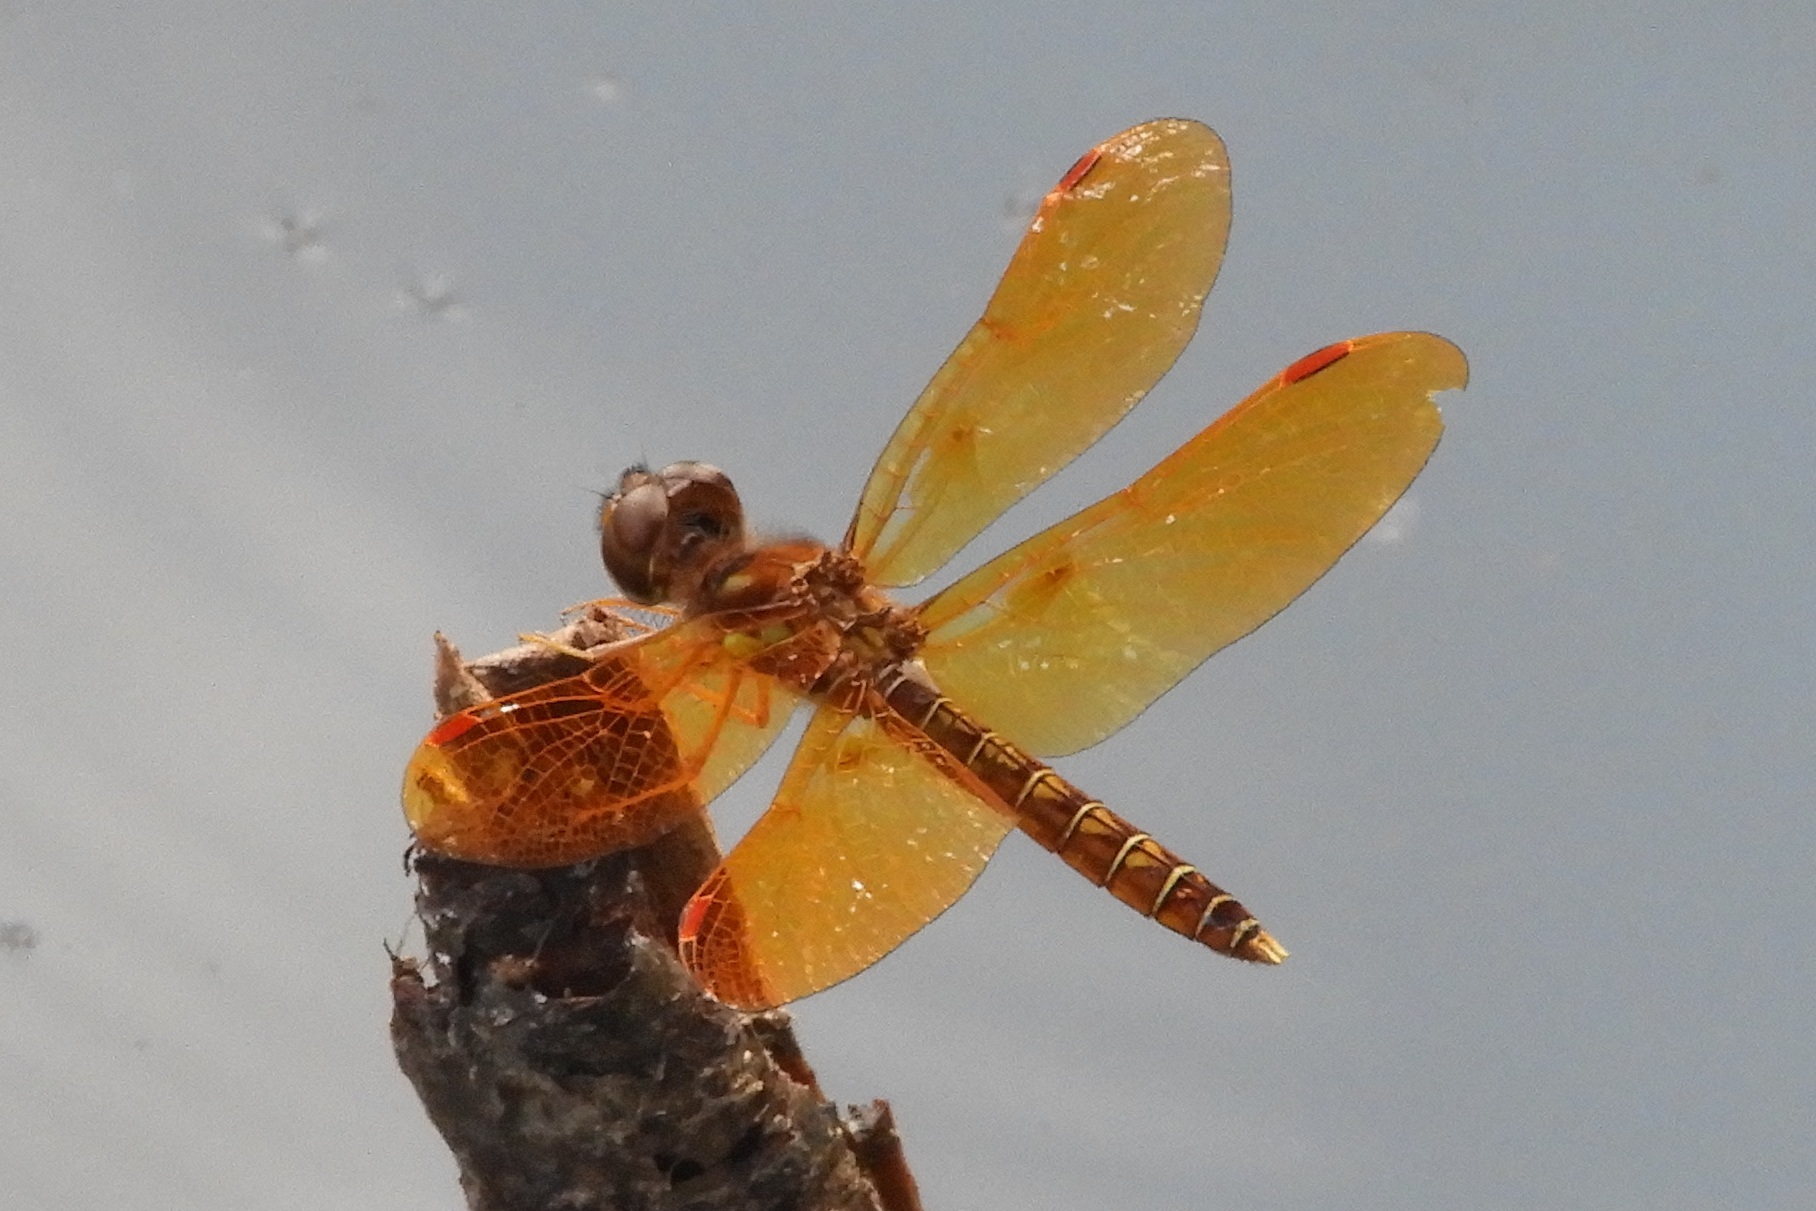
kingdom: Animalia
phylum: Arthropoda
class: Insecta
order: Odonata
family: Libellulidae
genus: Perithemis
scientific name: Perithemis tenera
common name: Eastern amberwing
